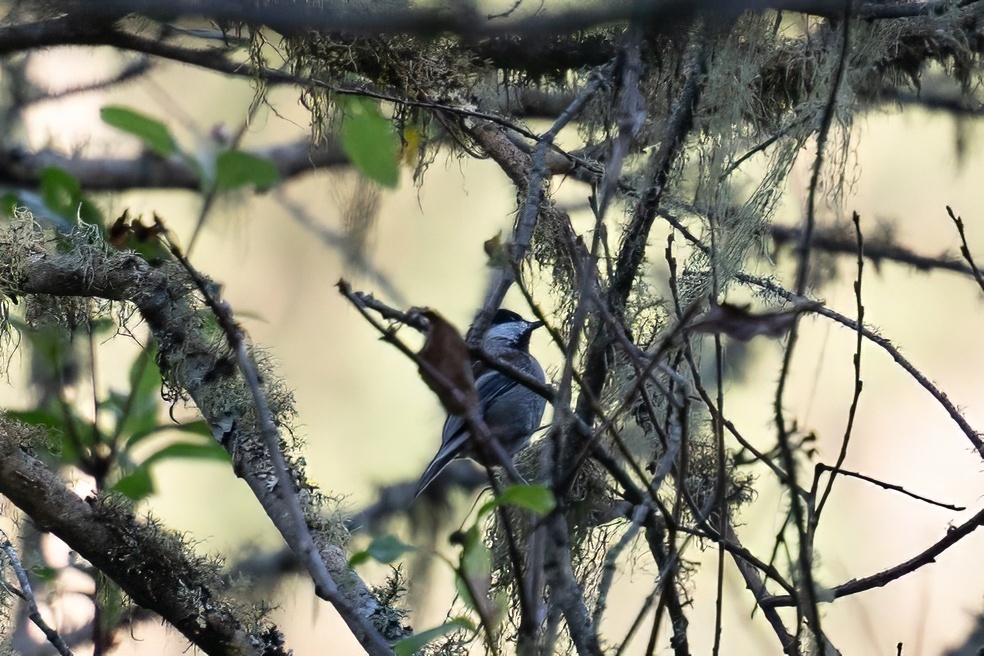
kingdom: Animalia
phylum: Chordata
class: Aves
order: Passeriformes
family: Paridae
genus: Poecile
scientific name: Poecile rufescens
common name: Chestnut-backed chickadee
